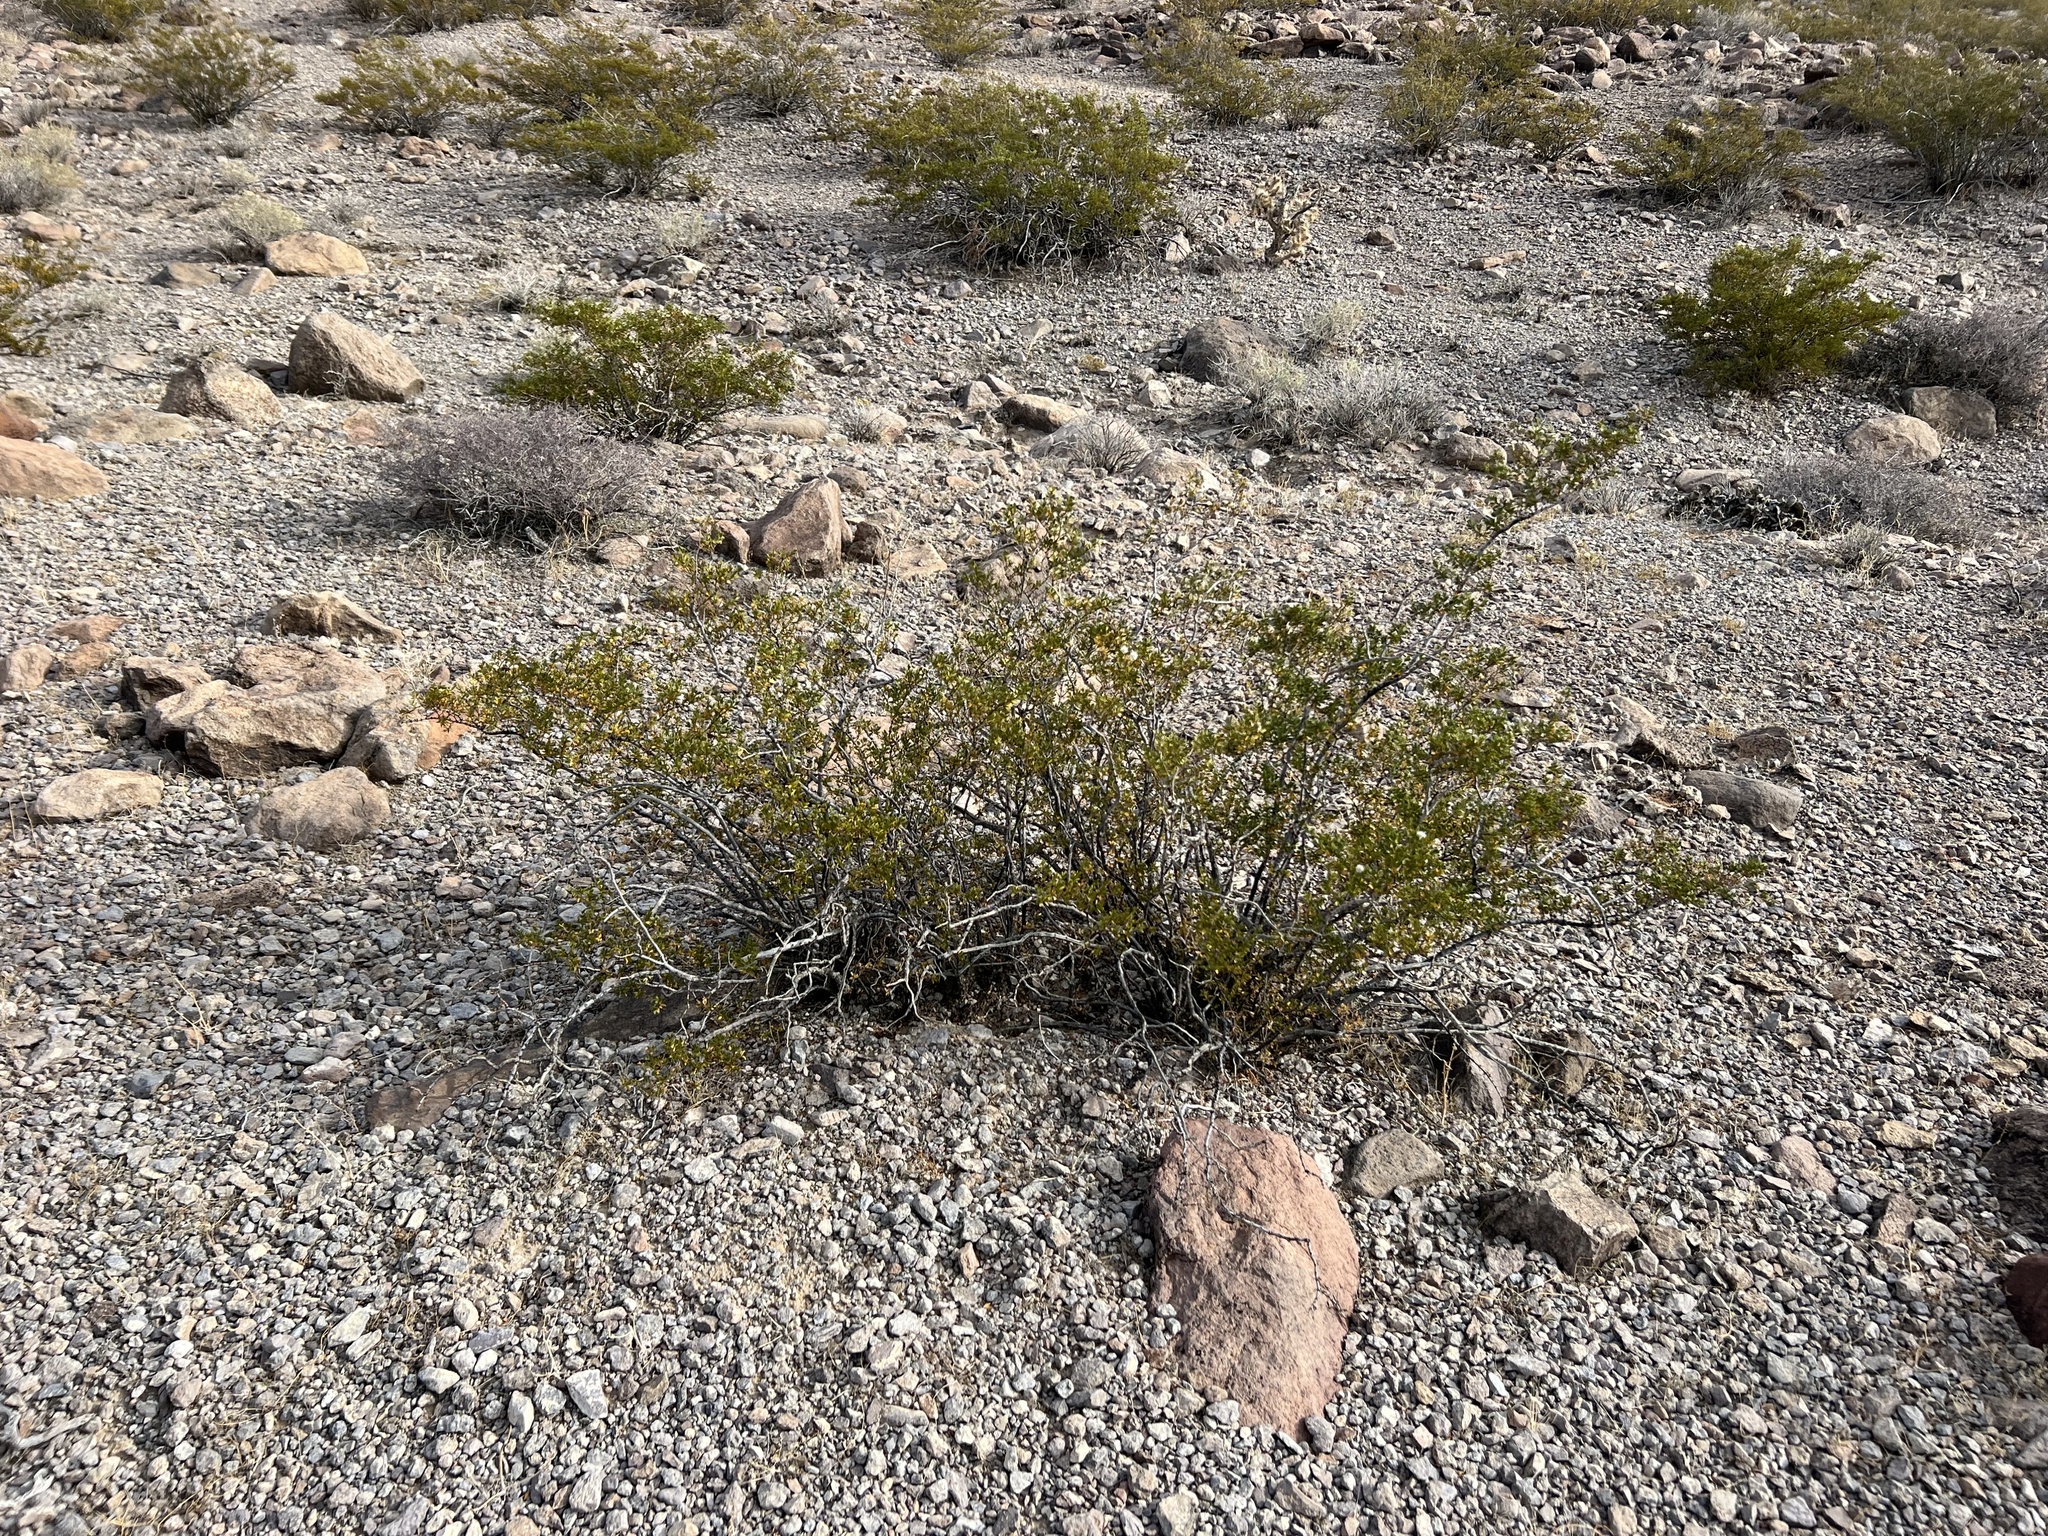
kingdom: Plantae
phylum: Tracheophyta
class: Magnoliopsida
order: Zygophyllales
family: Zygophyllaceae
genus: Larrea
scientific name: Larrea tridentata
